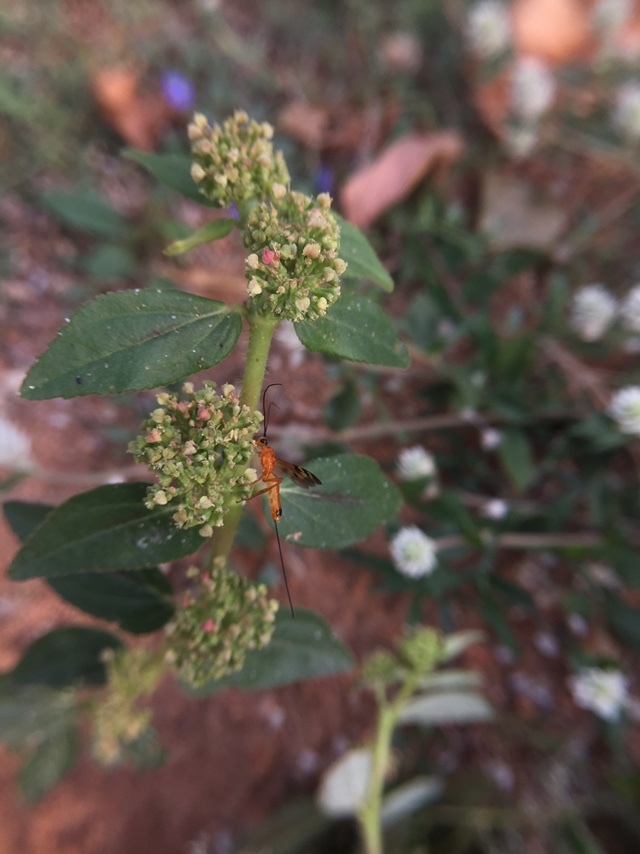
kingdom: Plantae
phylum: Tracheophyta
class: Magnoliopsida
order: Malpighiales
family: Euphorbiaceae
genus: Euphorbia
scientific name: Euphorbia hirta
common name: Pillpod sandmat
